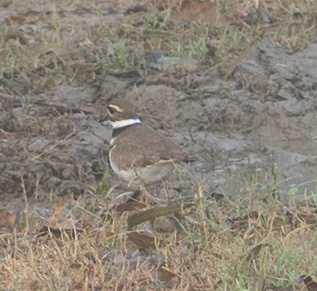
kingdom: Animalia
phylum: Chordata
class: Aves
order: Charadriiformes
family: Charadriidae
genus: Charadrius
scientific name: Charadrius vociferus
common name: Killdeer
